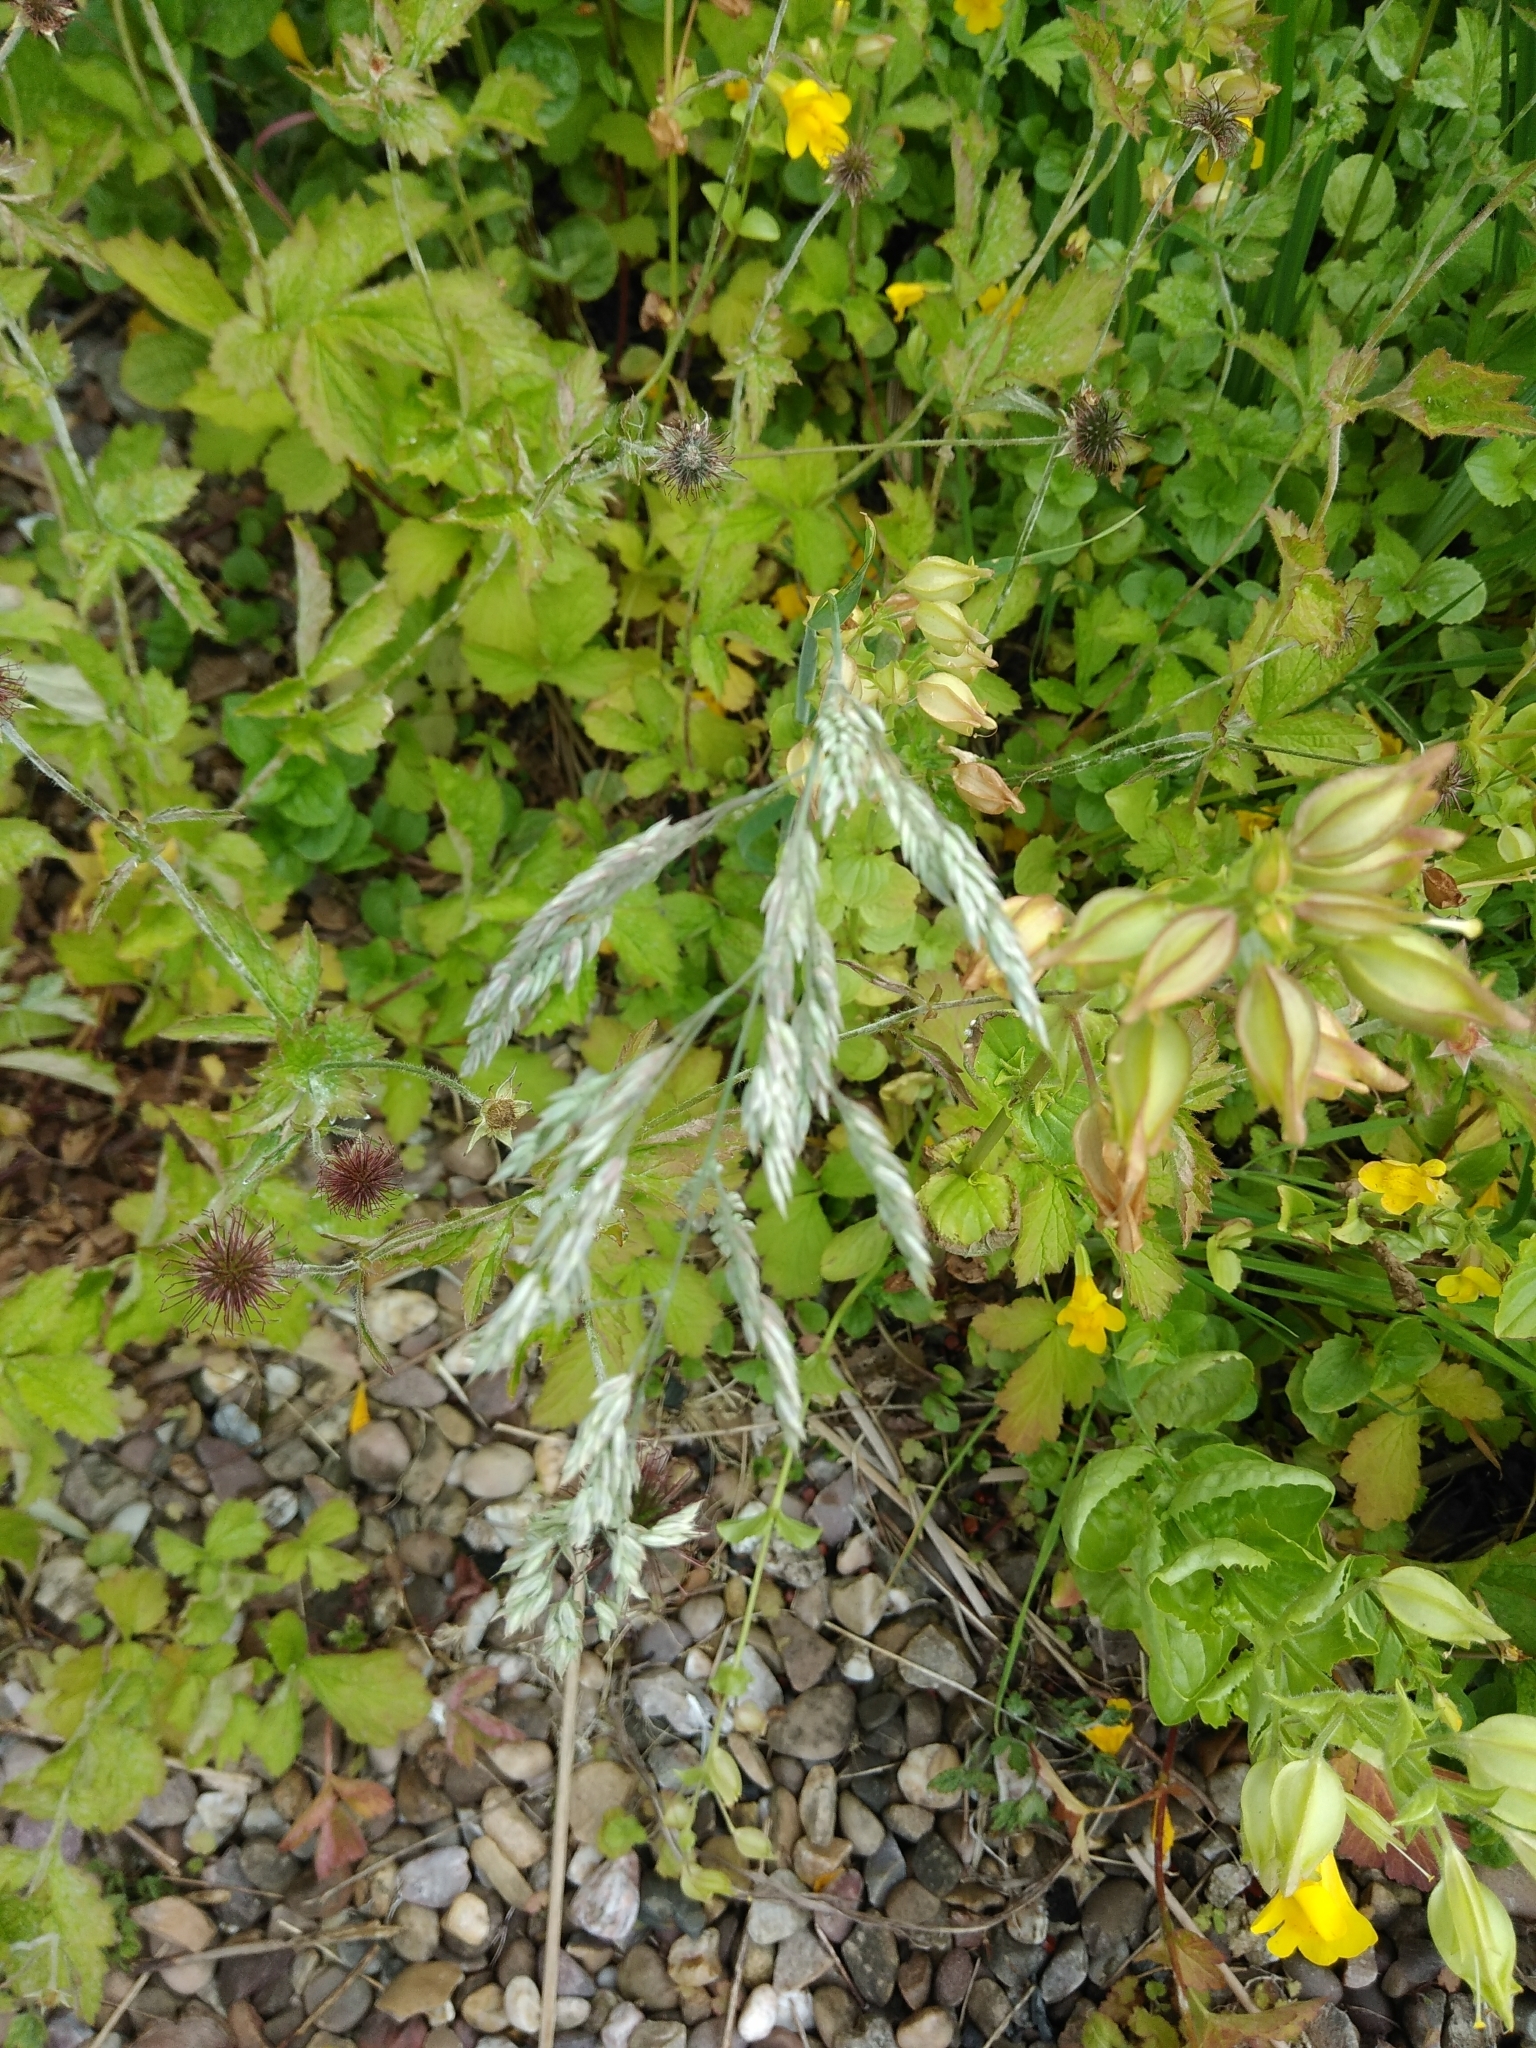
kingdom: Plantae
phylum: Tracheophyta
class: Liliopsida
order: Poales
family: Poaceae
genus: Holcus
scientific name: Holcus lanatus
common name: Yorkshire-fog
